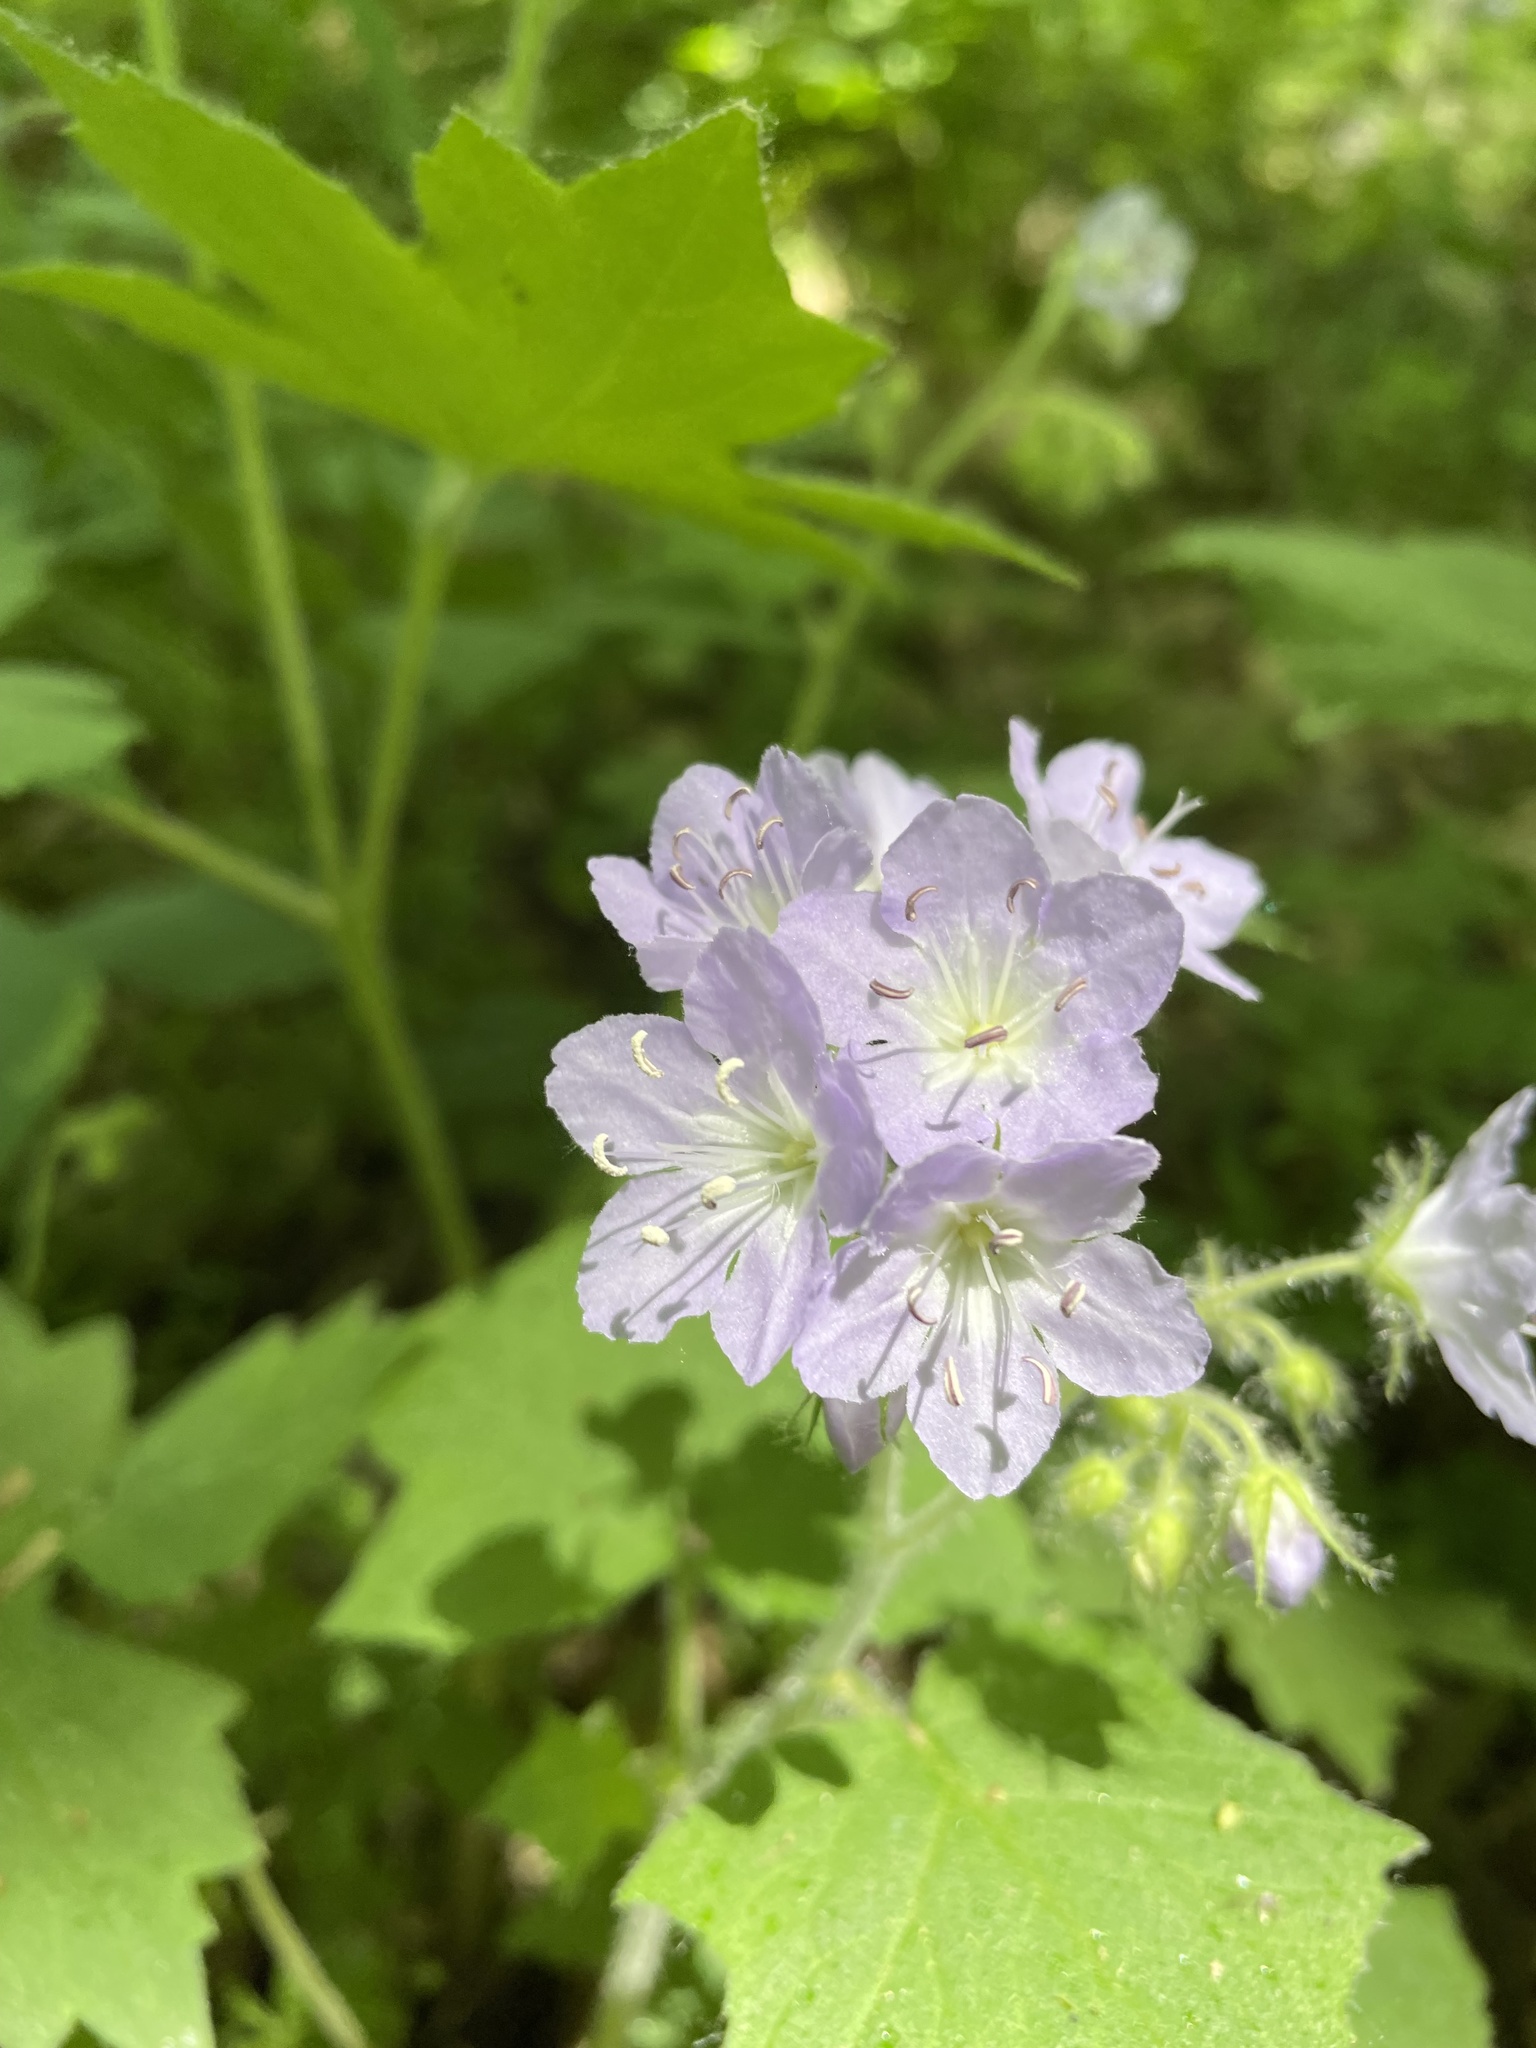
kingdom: Plantae
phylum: Tracheophyta
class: Magnoliopsida
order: Boraginales
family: Hydrophyllaceae
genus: Hydrophyllum
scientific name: Hydrophyllum appendiculatum
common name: Appendaged waterleaf
